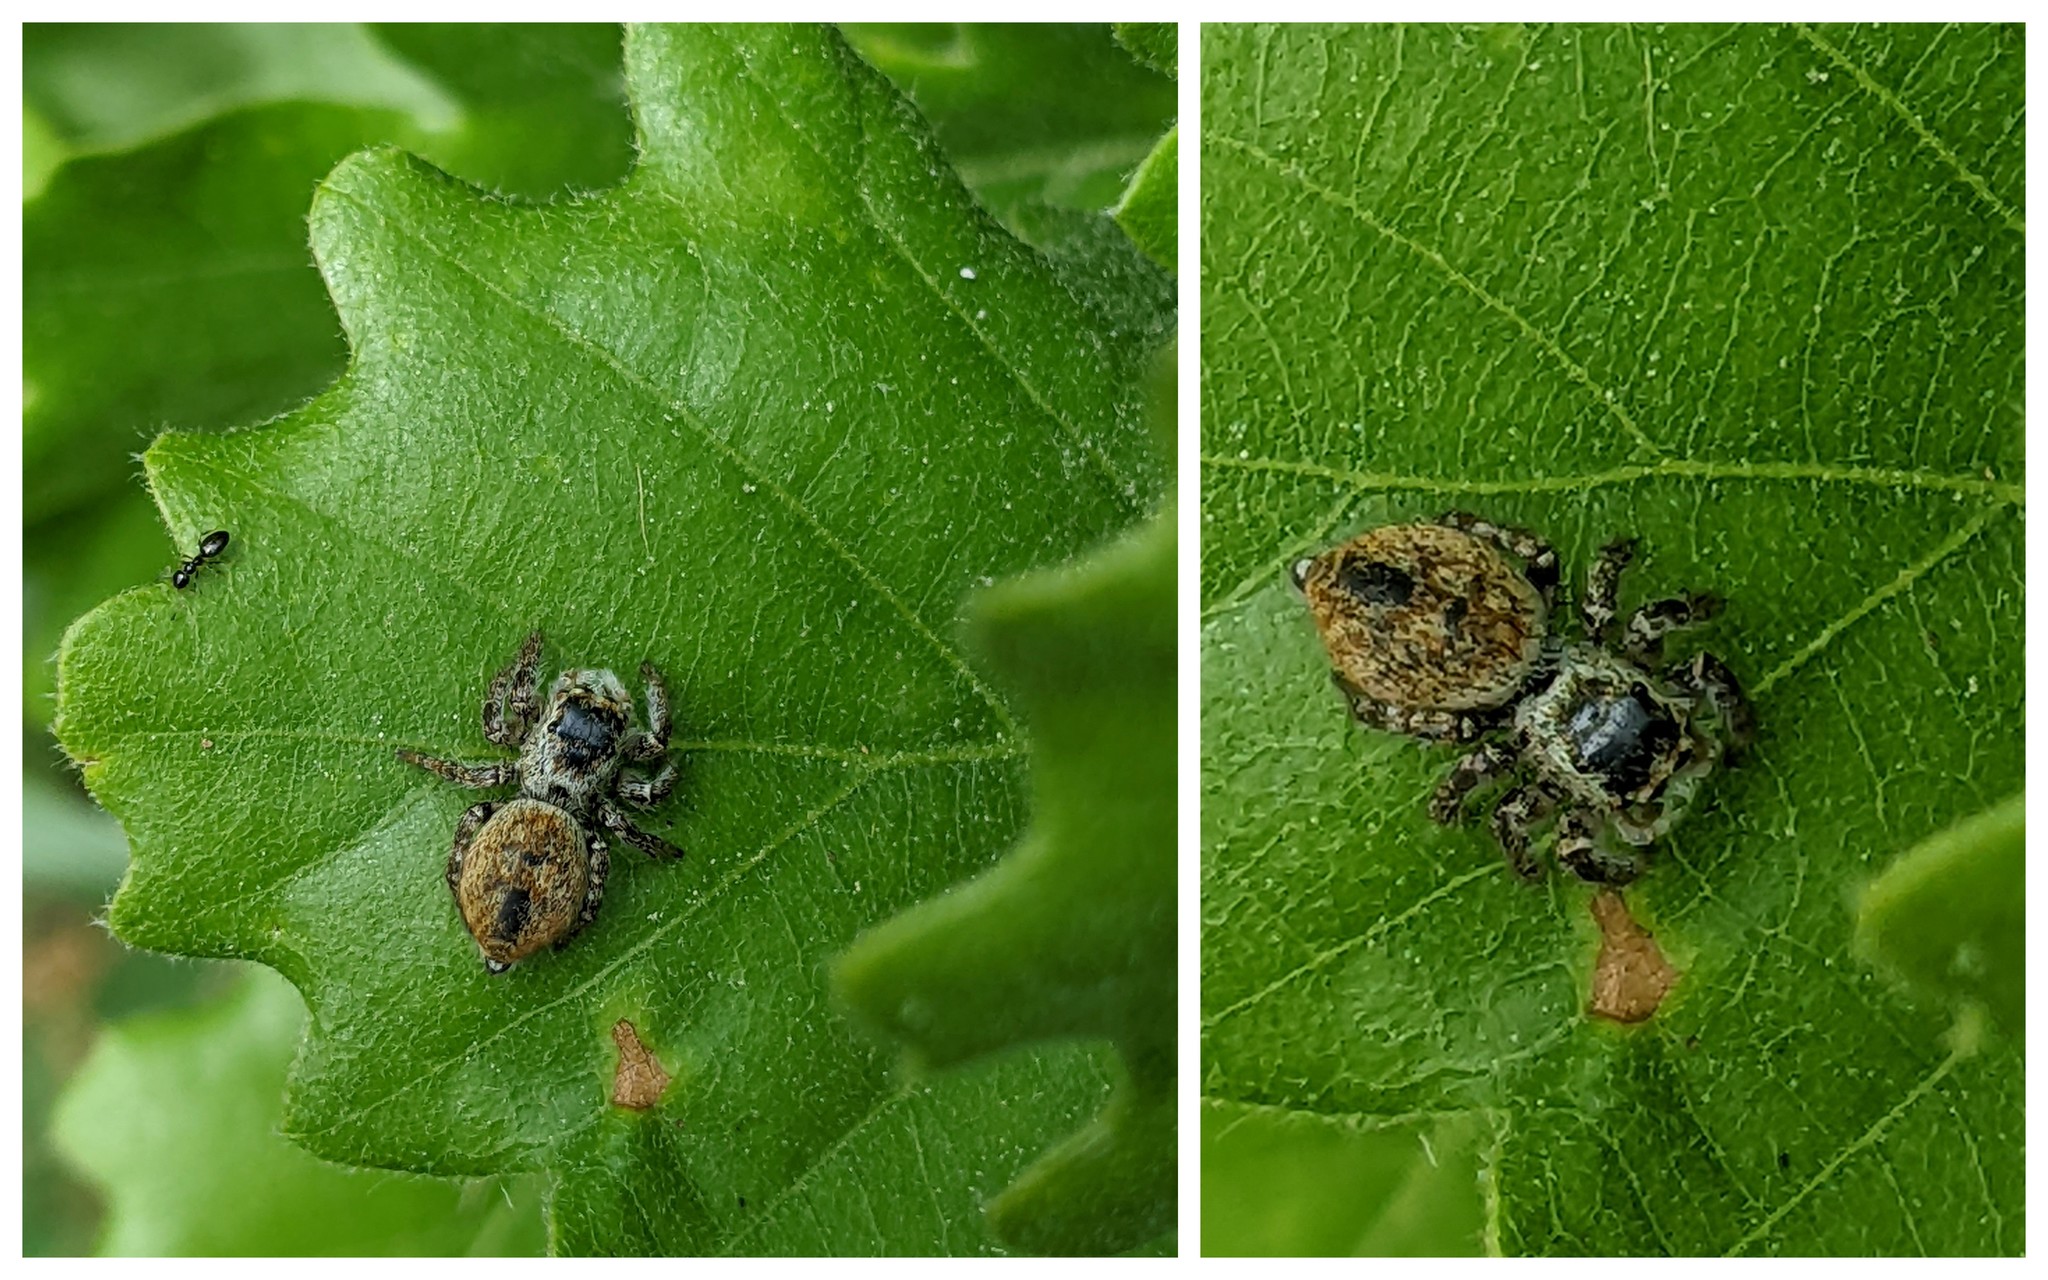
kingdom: Animalia
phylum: Arthropoda
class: Arachnida
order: Araneae
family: Salticidae
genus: Carrhotus
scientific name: Carrhotus xanthogramma
